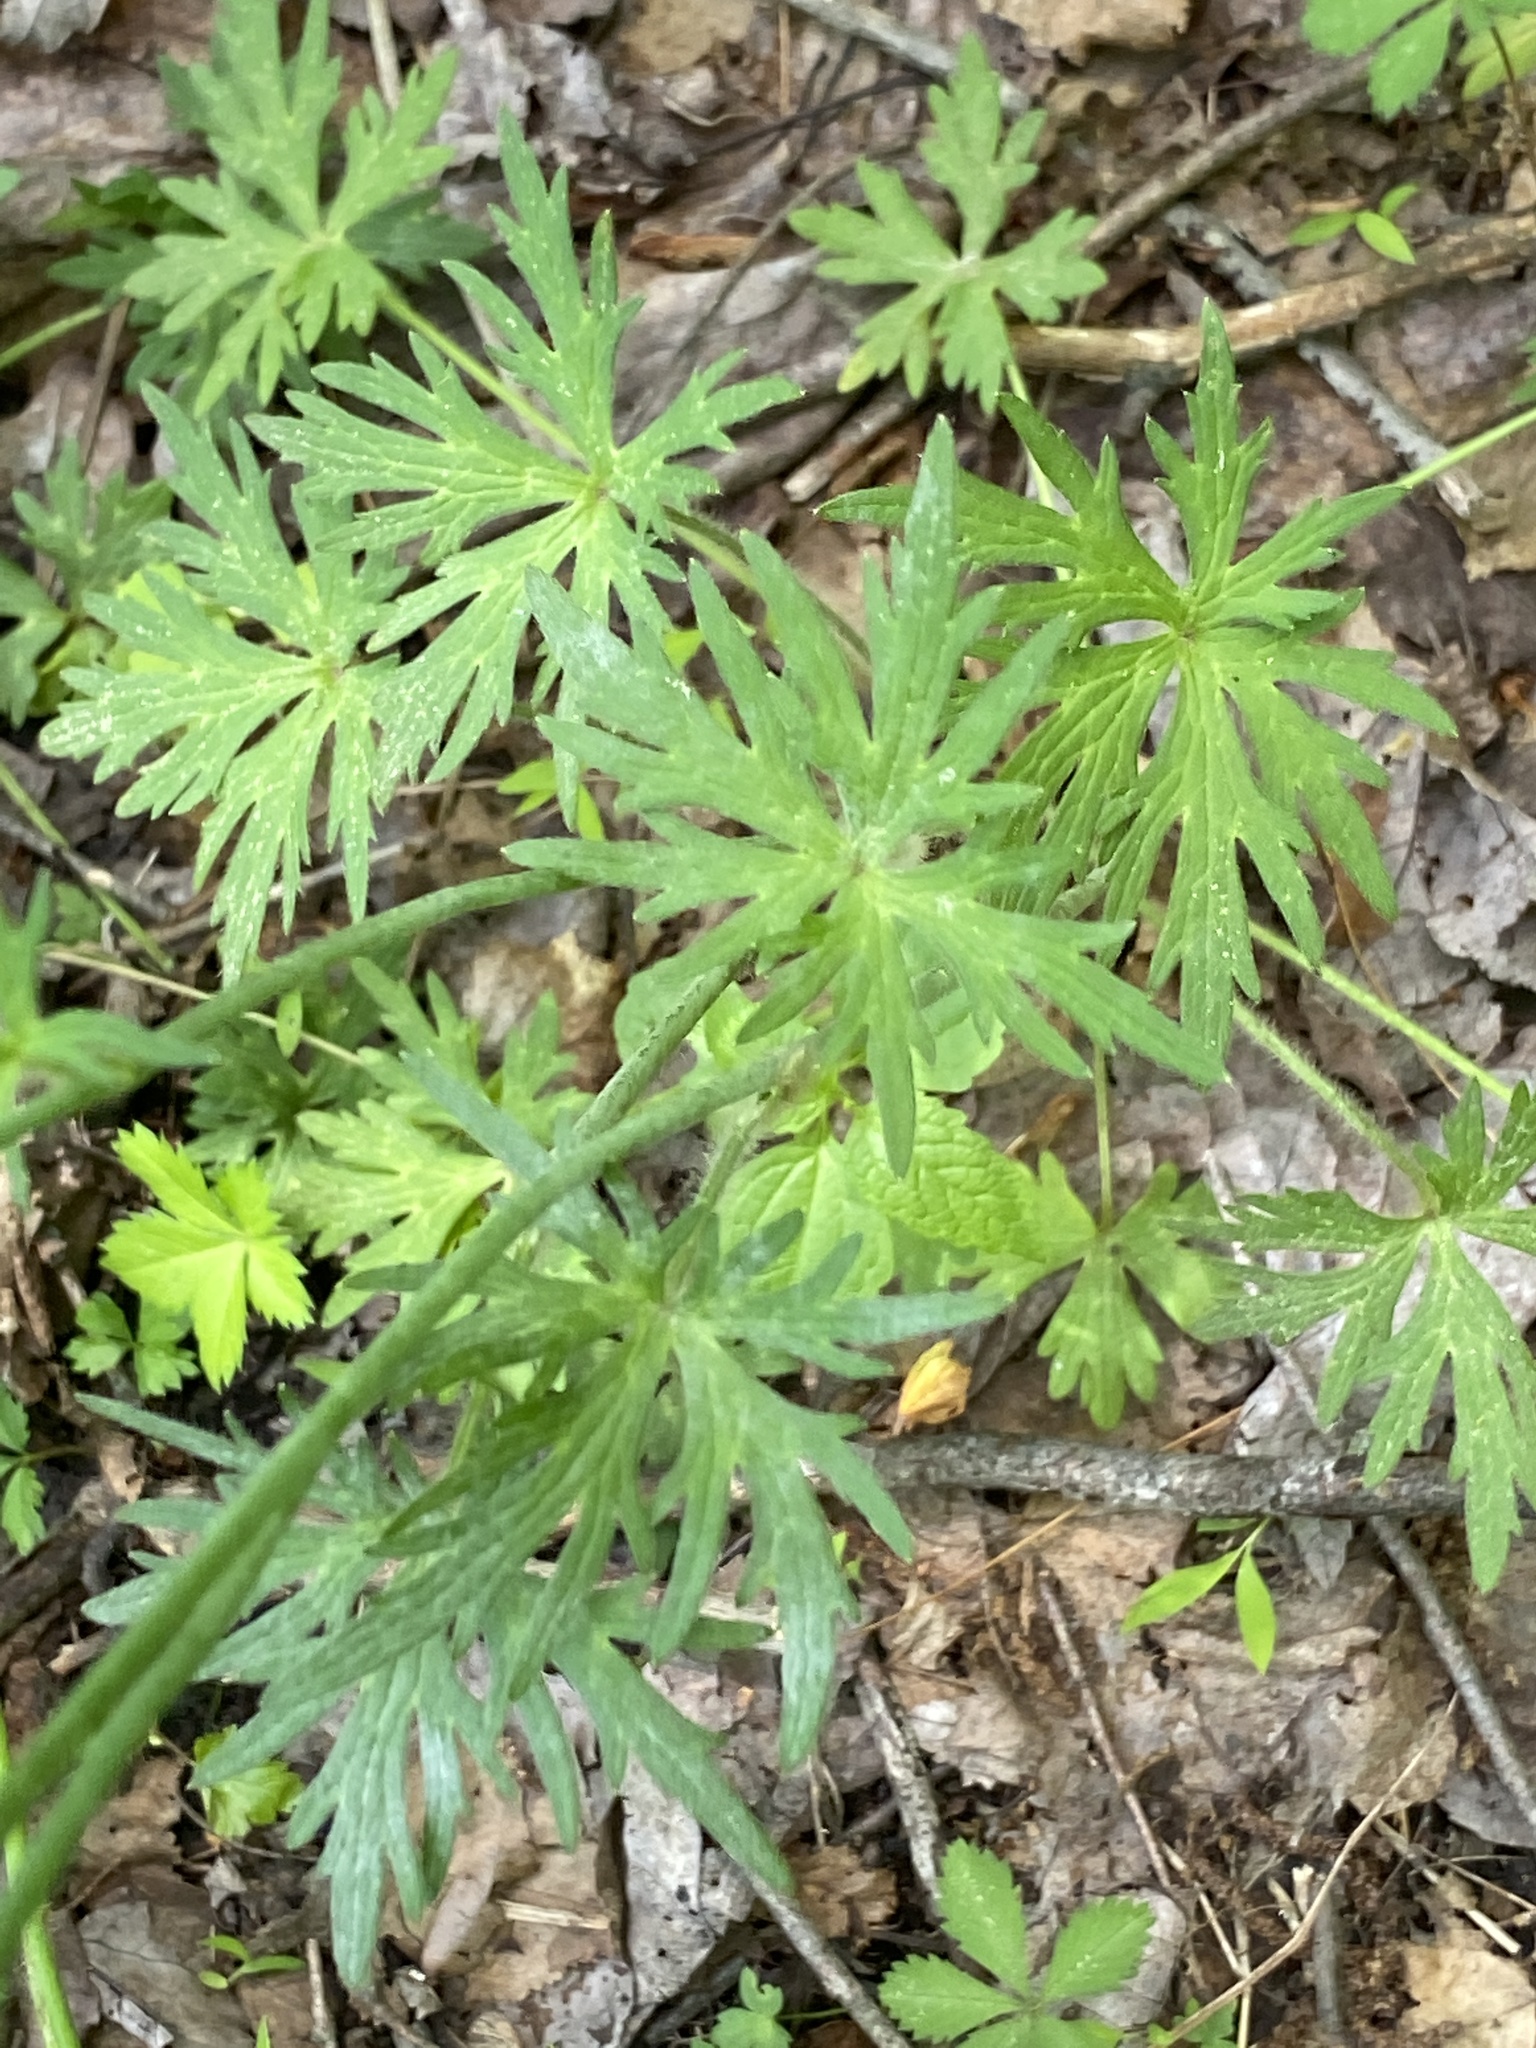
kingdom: Plantae
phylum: Tracheophyta
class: Magnoliopsida
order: Ranunculales
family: Ranunculaceae
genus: Ranunculus
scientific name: Ranunculus acris
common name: Meadow buttercup
